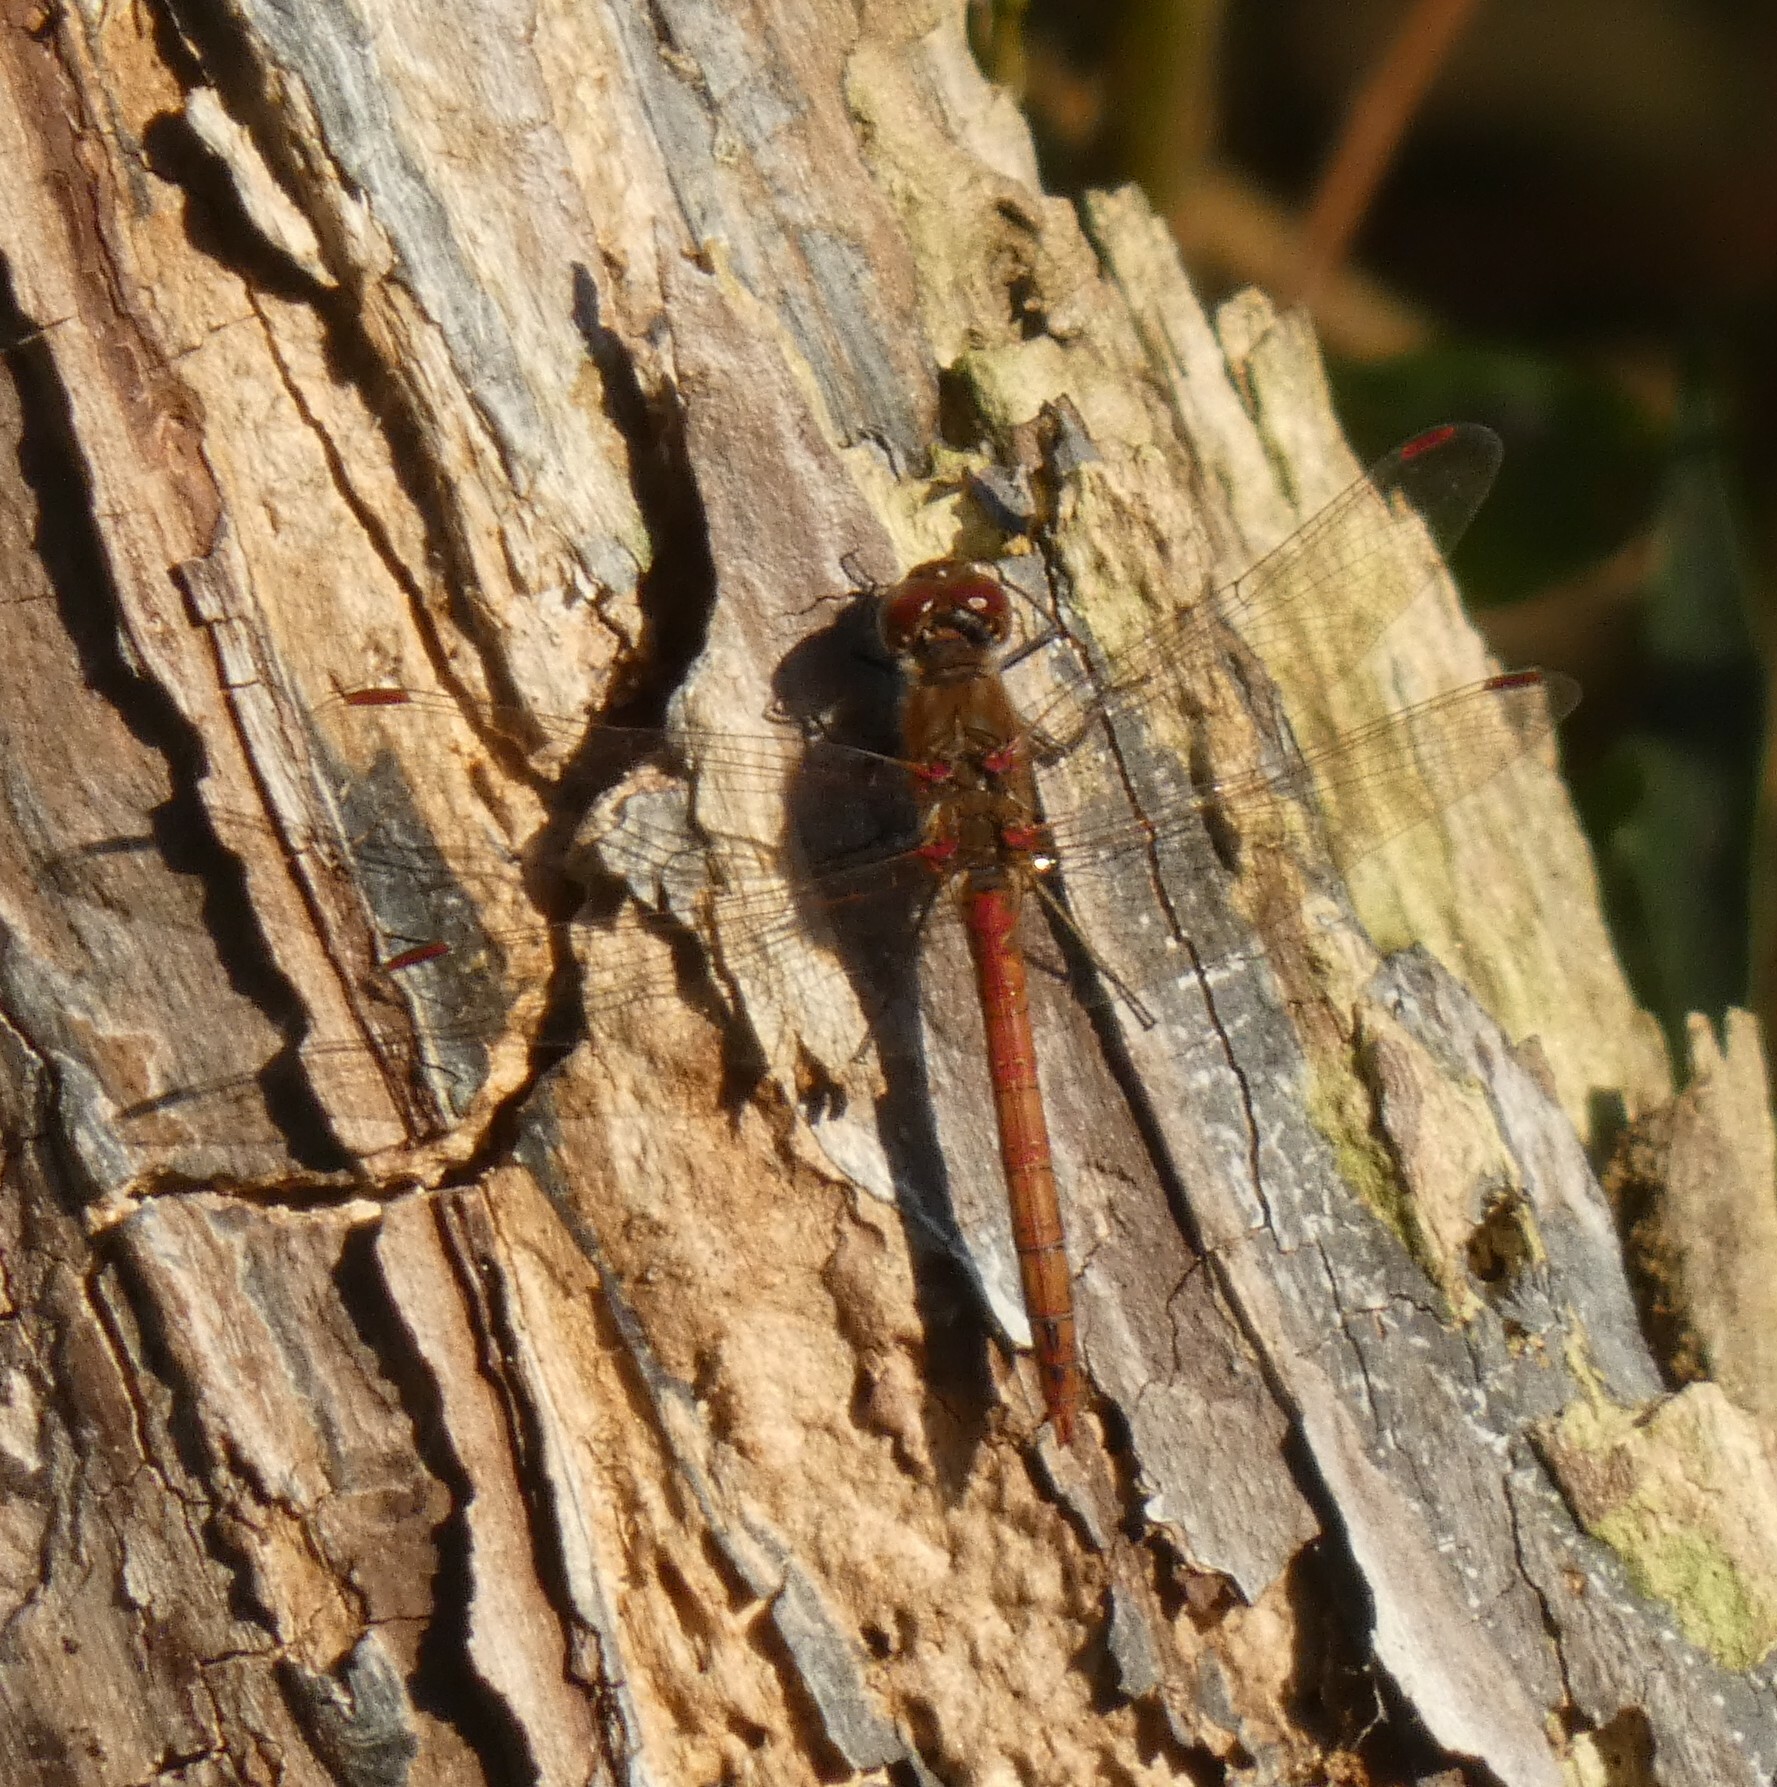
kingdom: Animalia
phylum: Arthropoda
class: Insecta
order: Odonata
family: Libellulidae
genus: Sympetrum
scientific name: Sympetrum striolatum
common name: Common darter
